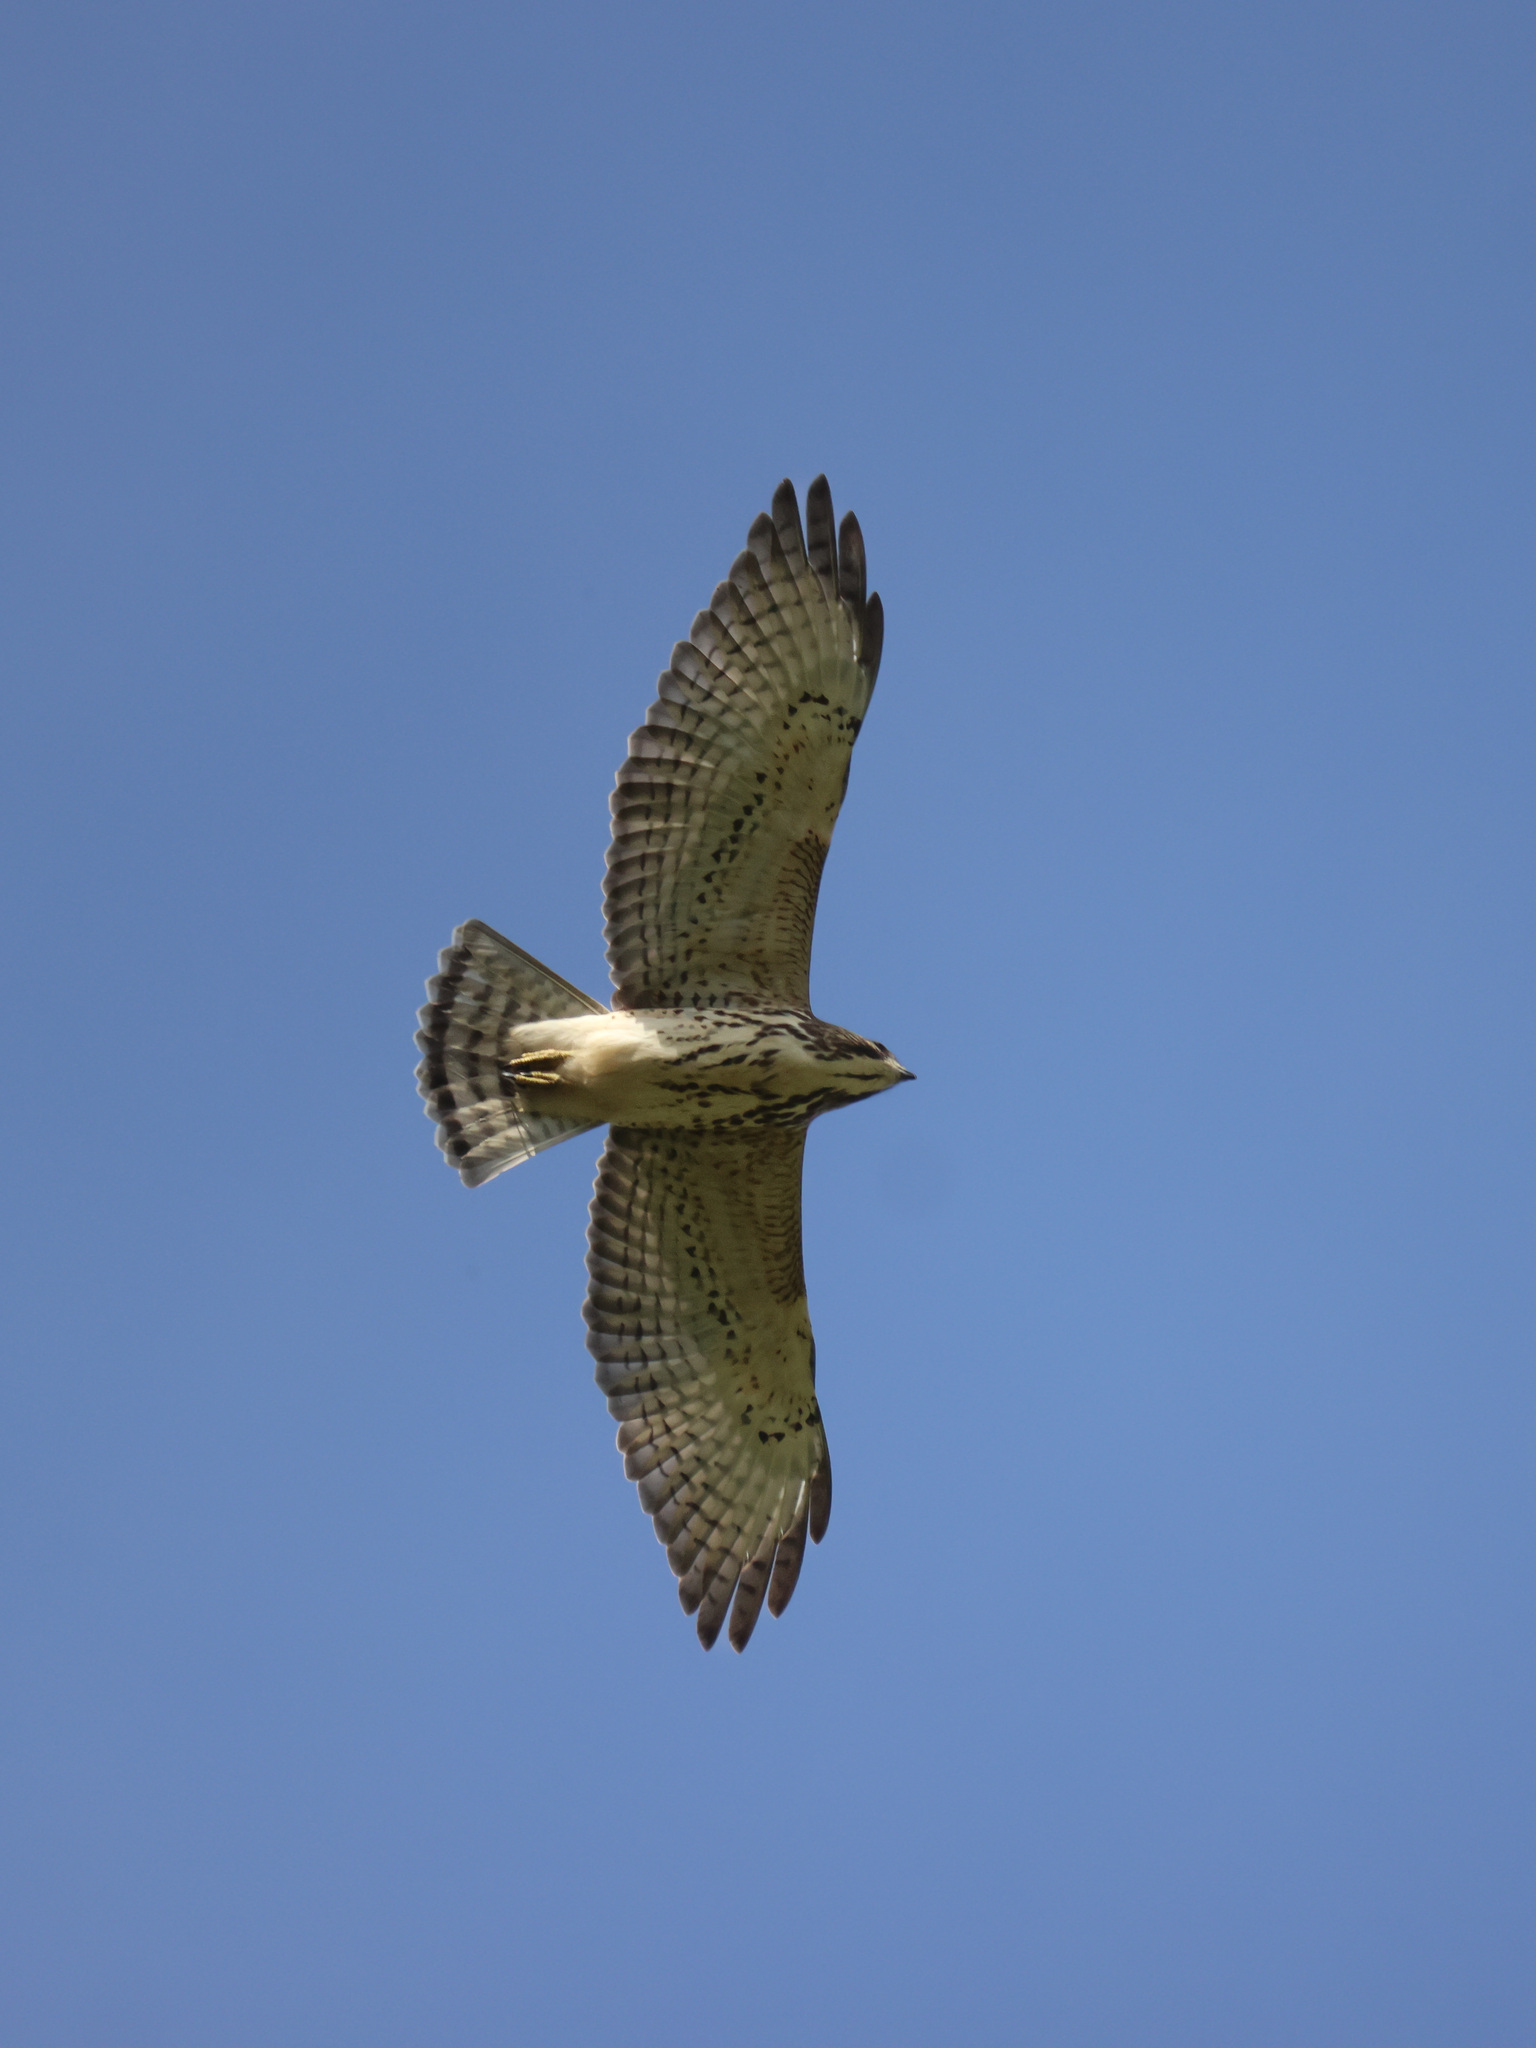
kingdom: Animalia
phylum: Chordata
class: Aves
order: Accipitriformes
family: Accipitridae
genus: Buteo
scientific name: Buteo platypterus
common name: Broad-winged hawk
